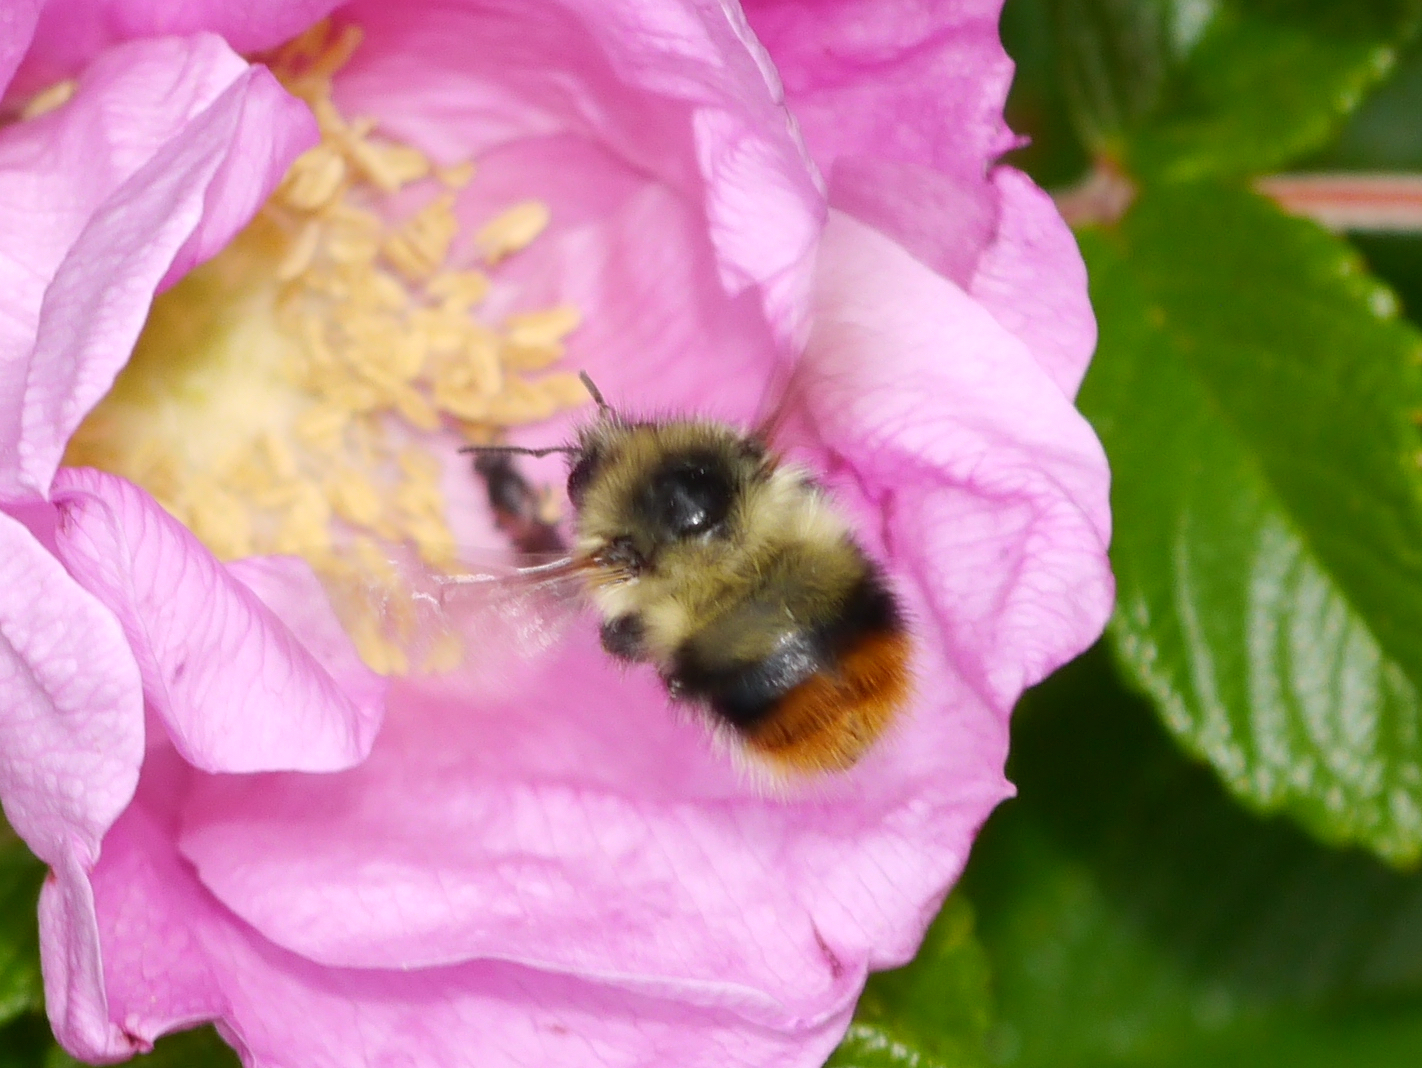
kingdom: Animalia
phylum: Arthropoda
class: Insecta
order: Hymenoptera
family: Apidae
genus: Bombus
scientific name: Bombus mixtus
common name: Fuzzy-horned bumble bee
